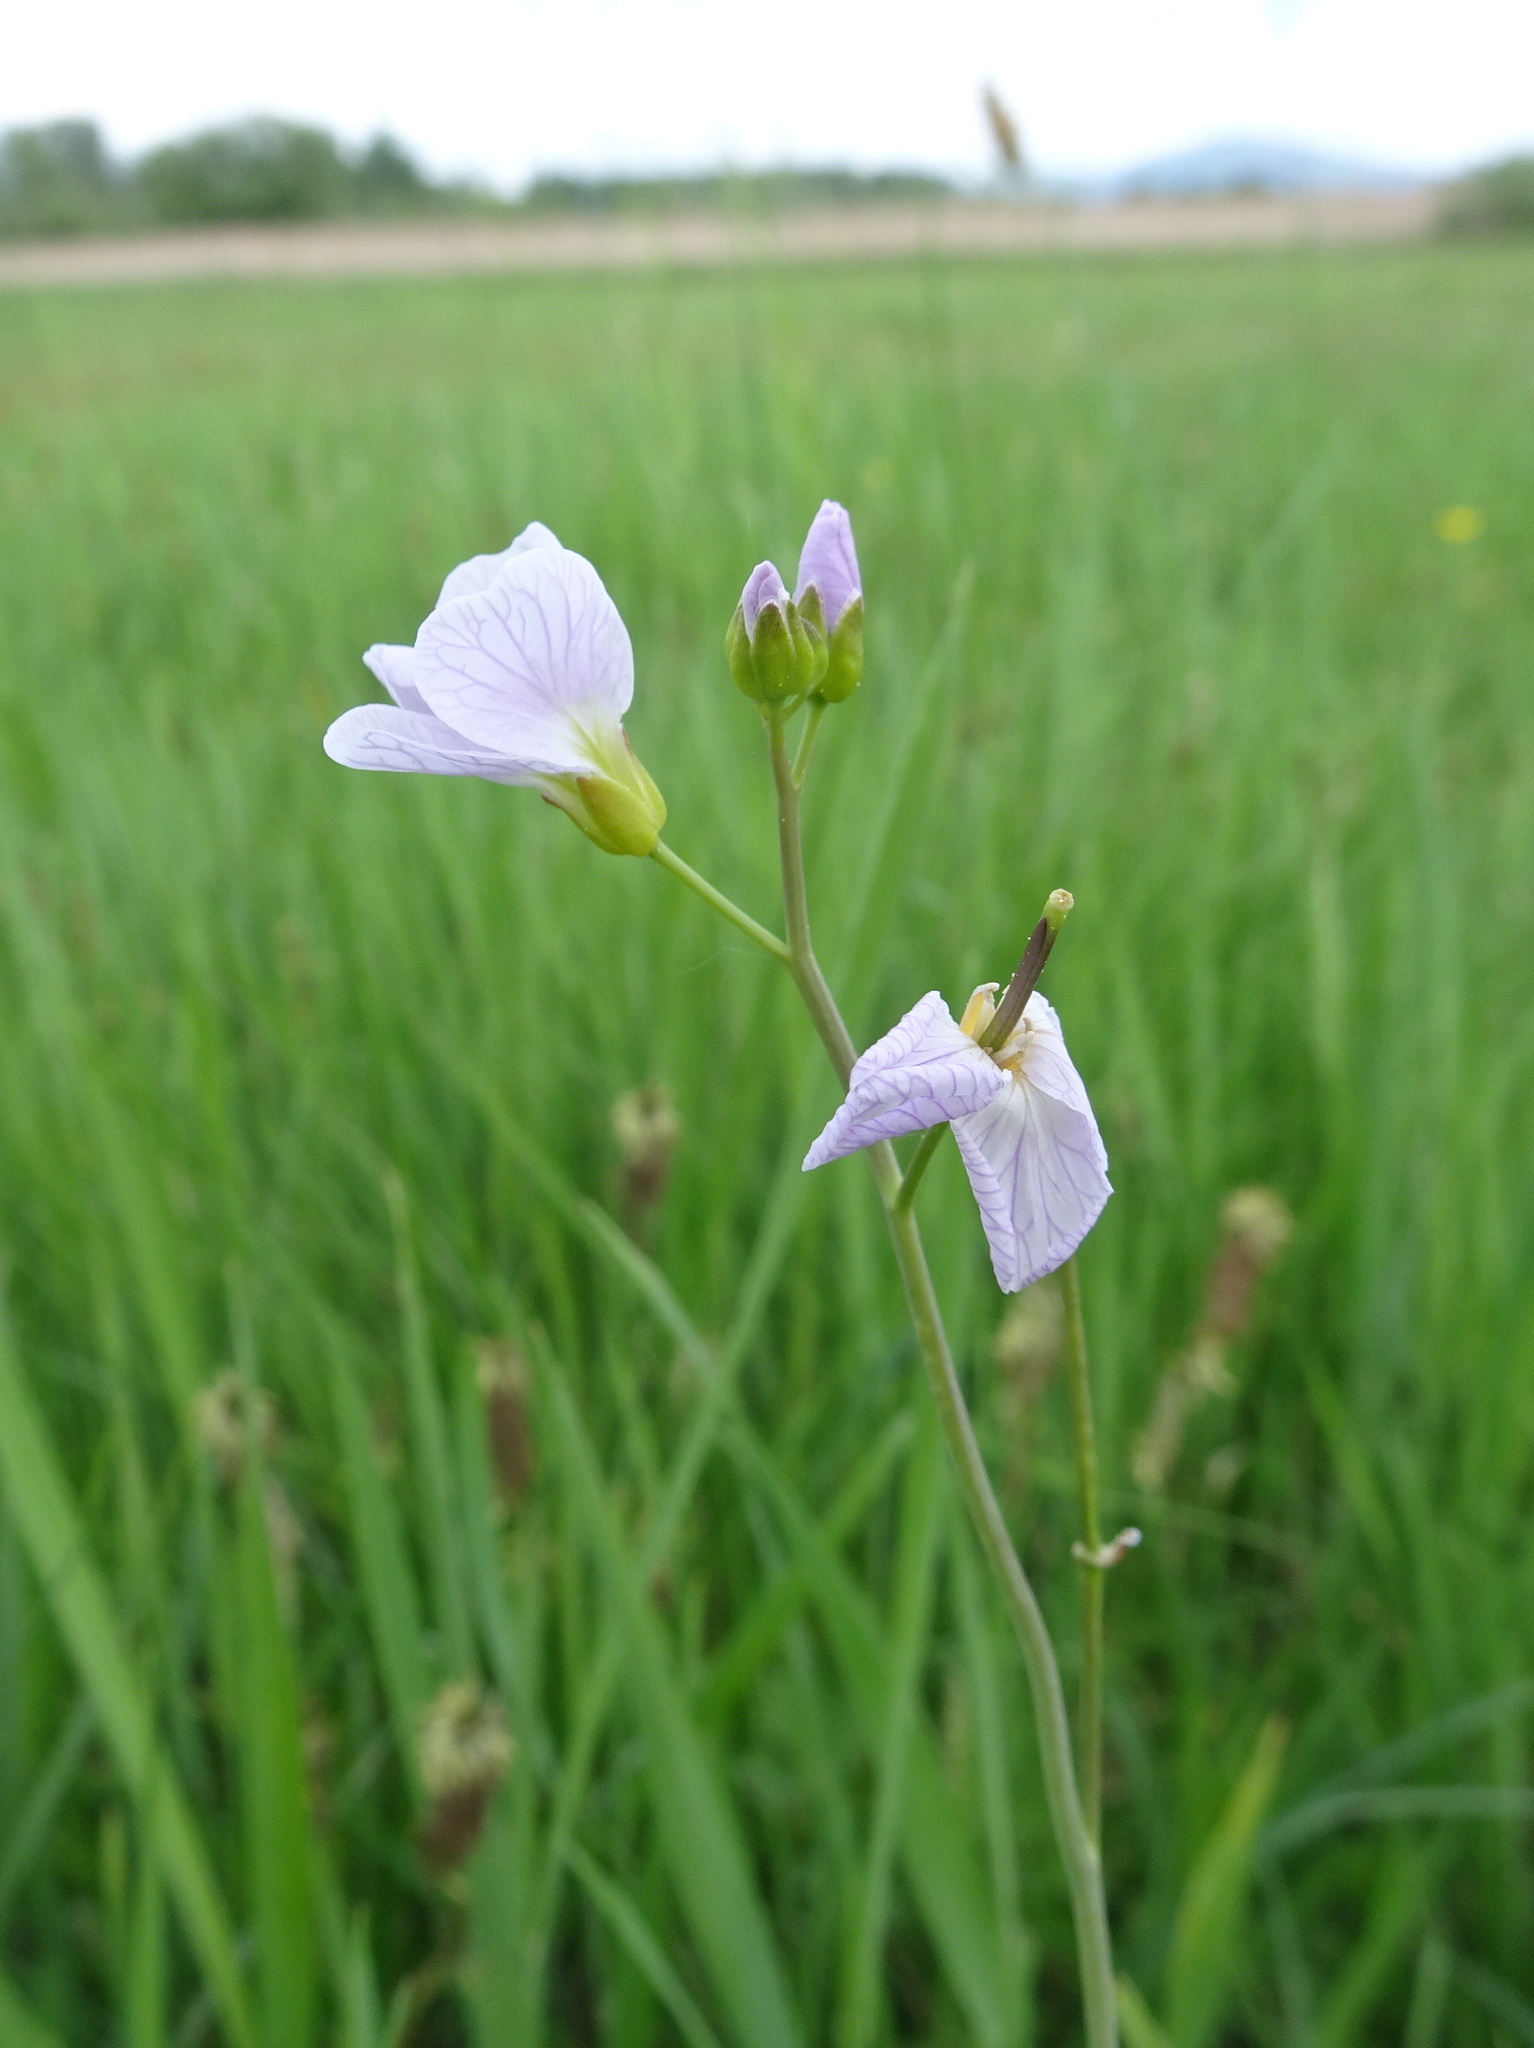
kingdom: Plantae
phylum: Tracheophyta
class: Magnoliopsida
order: Brassicales
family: Brassicaceae
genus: Cardamine
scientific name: Cardamine pratensis
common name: Cuckoo flower
